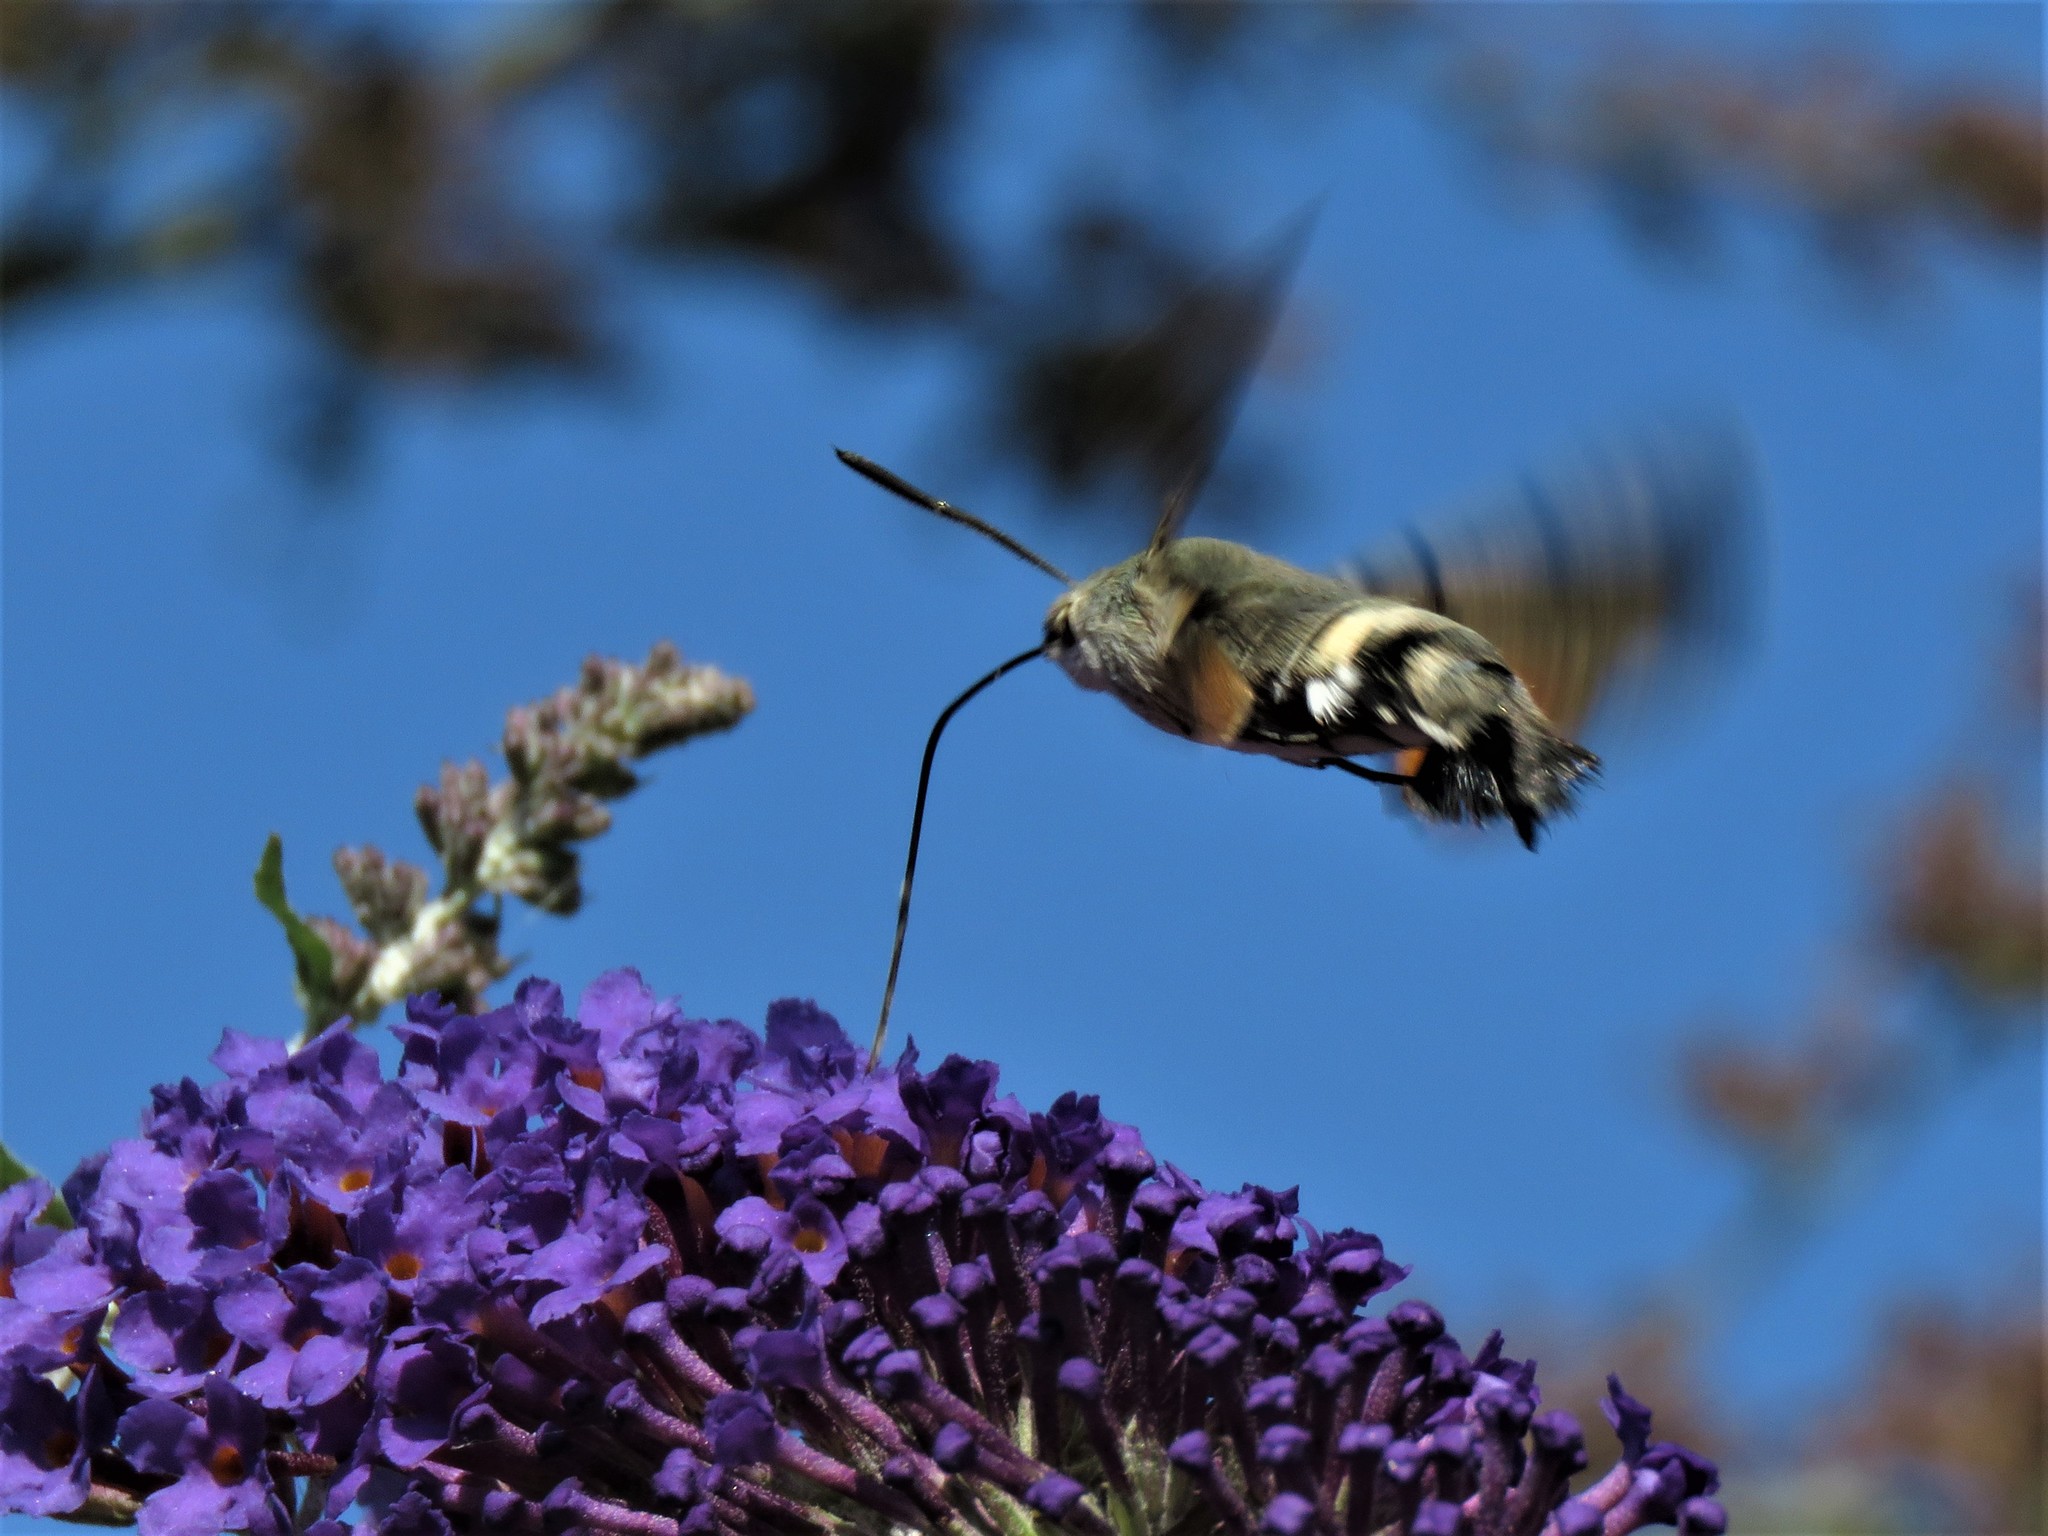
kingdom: Animalia
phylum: Arthropoda
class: Insecta
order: Lepidoptera
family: Sphingidae
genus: Macroglossum
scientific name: Macroglossum stellatarum
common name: Humming-bird hawk-moth
